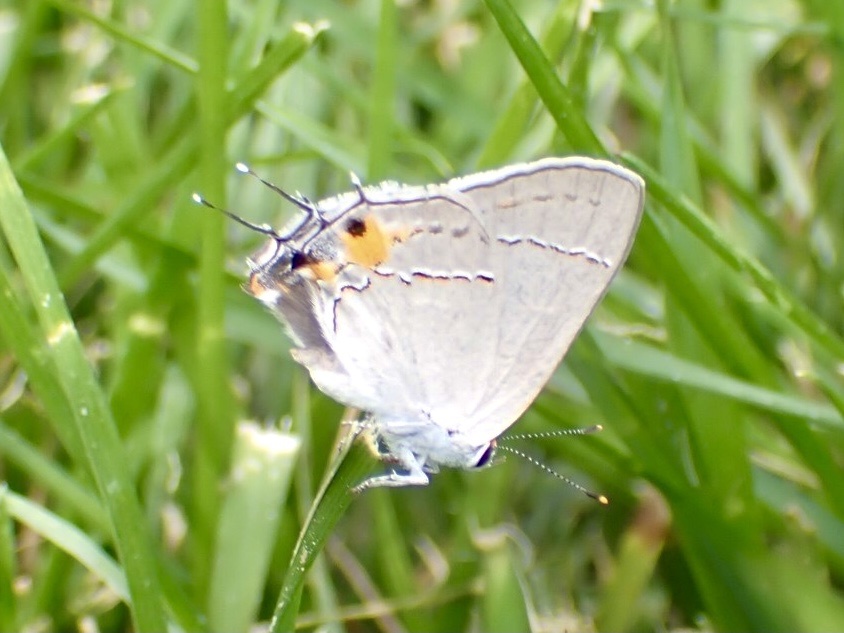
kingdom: Animalia
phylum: Arthropoda
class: Insecta
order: Lepidoptera
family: Lycaenidae
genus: Strymon
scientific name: Strymon melinus
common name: Gray hairstreak
